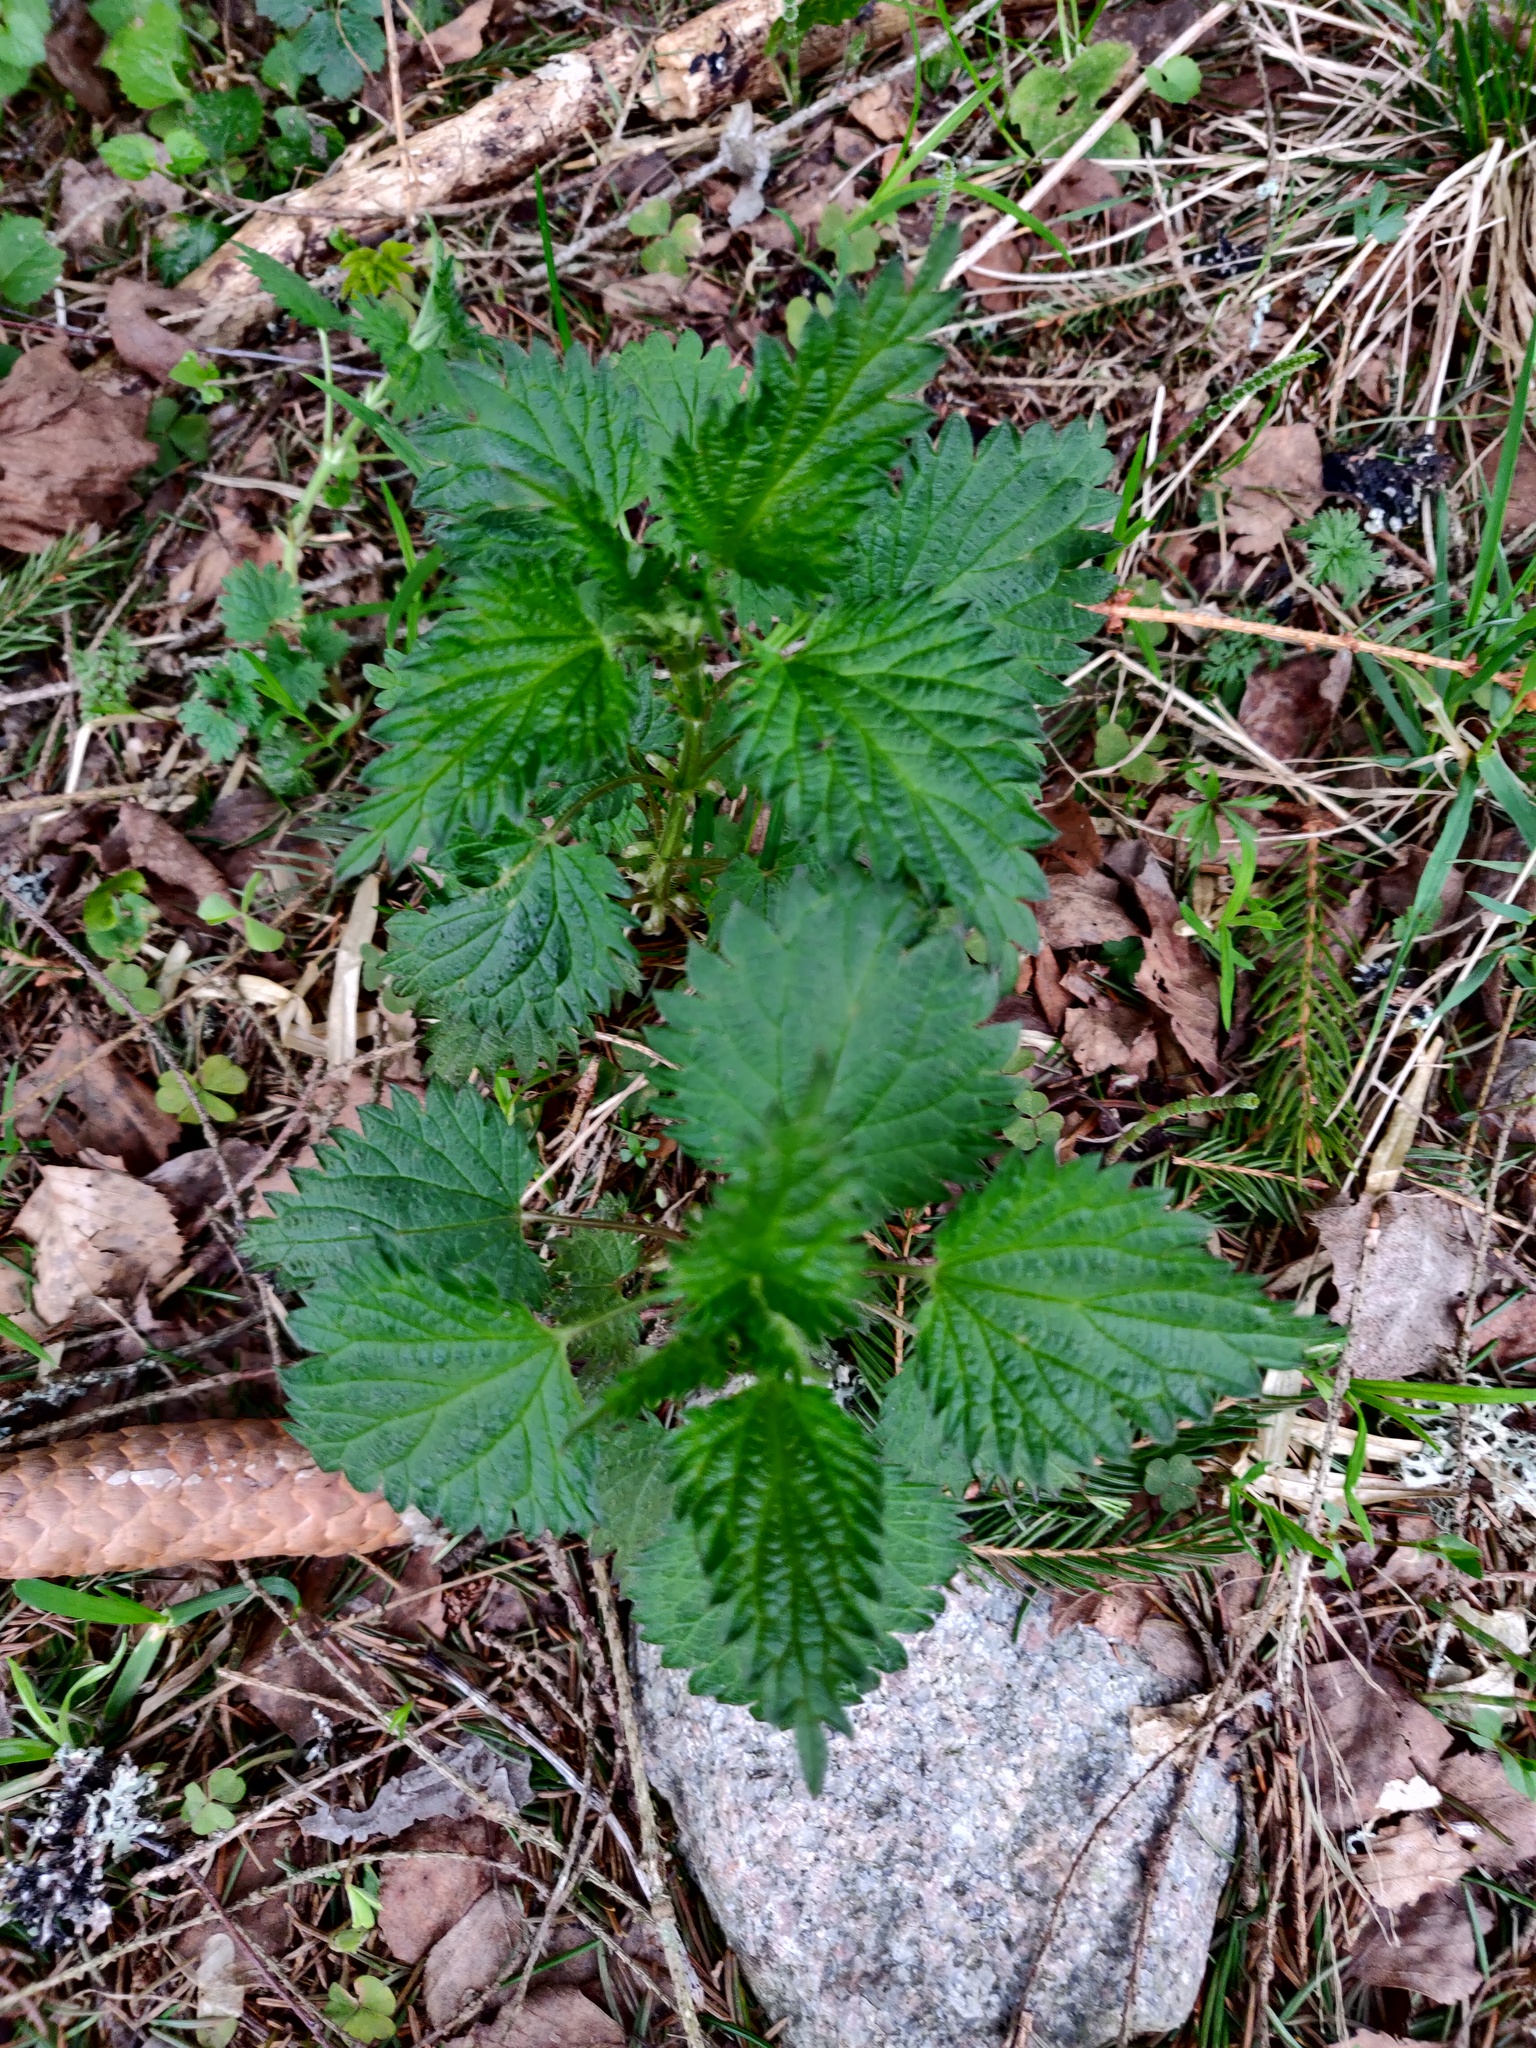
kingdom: Plantae
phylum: Tracheophyta
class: Magnoliopsida
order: Rosales
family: Urticaceae
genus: Urtica
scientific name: Urtica dioica
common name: Common nettle
